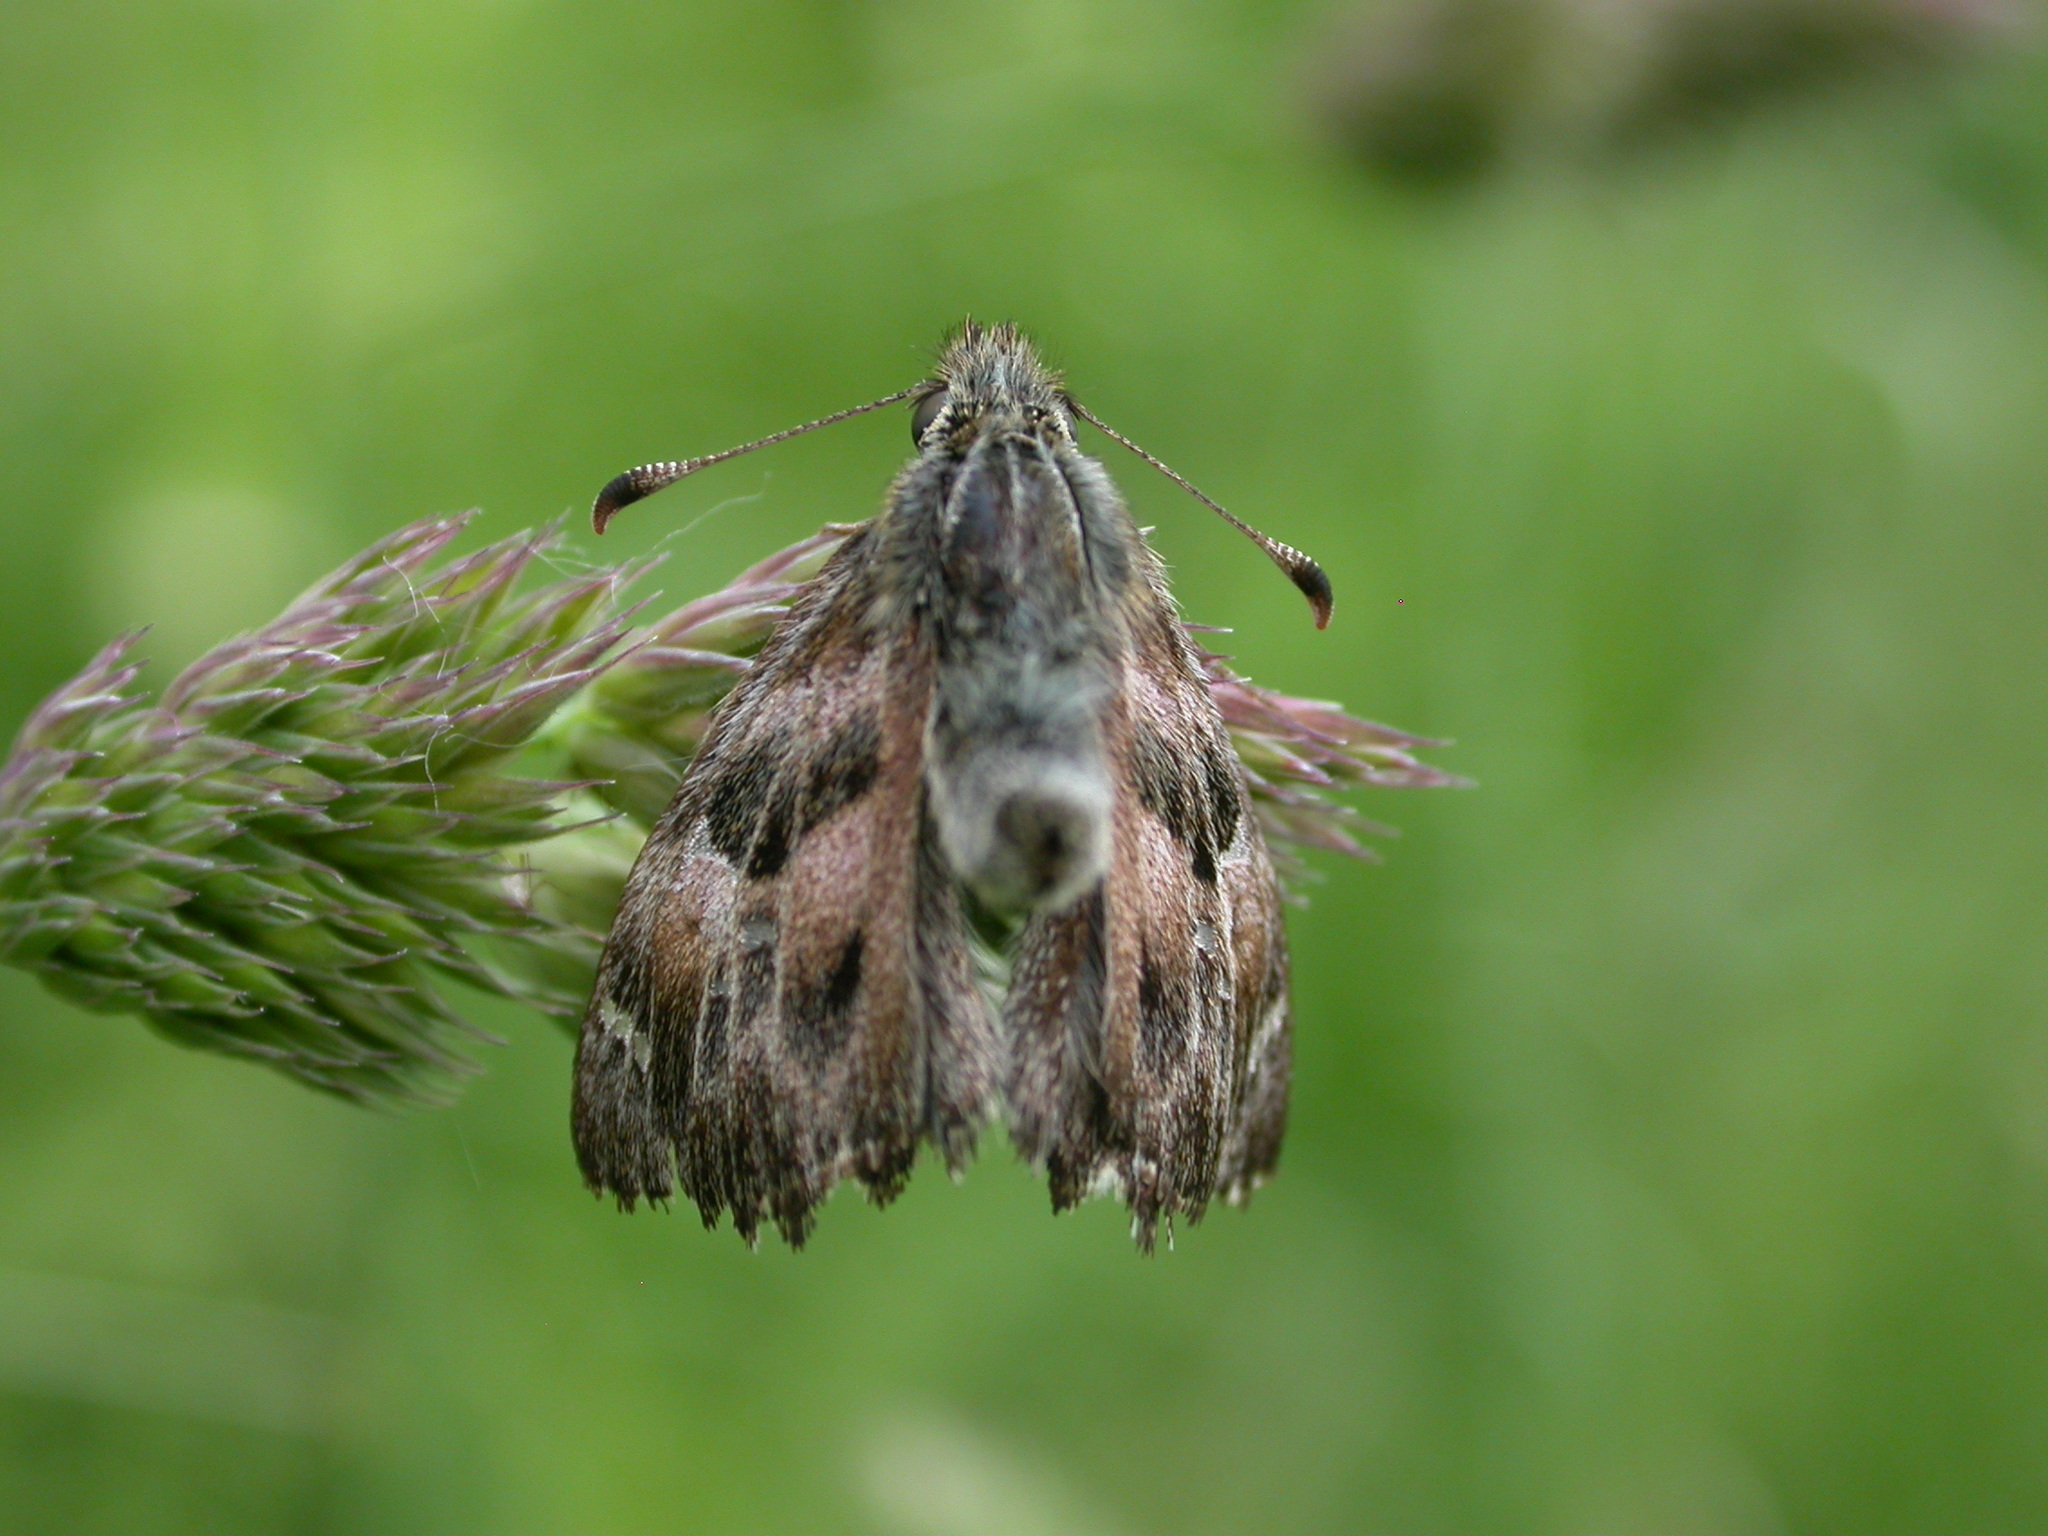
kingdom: Animalia
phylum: Arthropoda
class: Insecta
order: Lepidoptera
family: Hesperiidae
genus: Carcharodus
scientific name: Carcharodus alceae
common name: Mallow skipper
